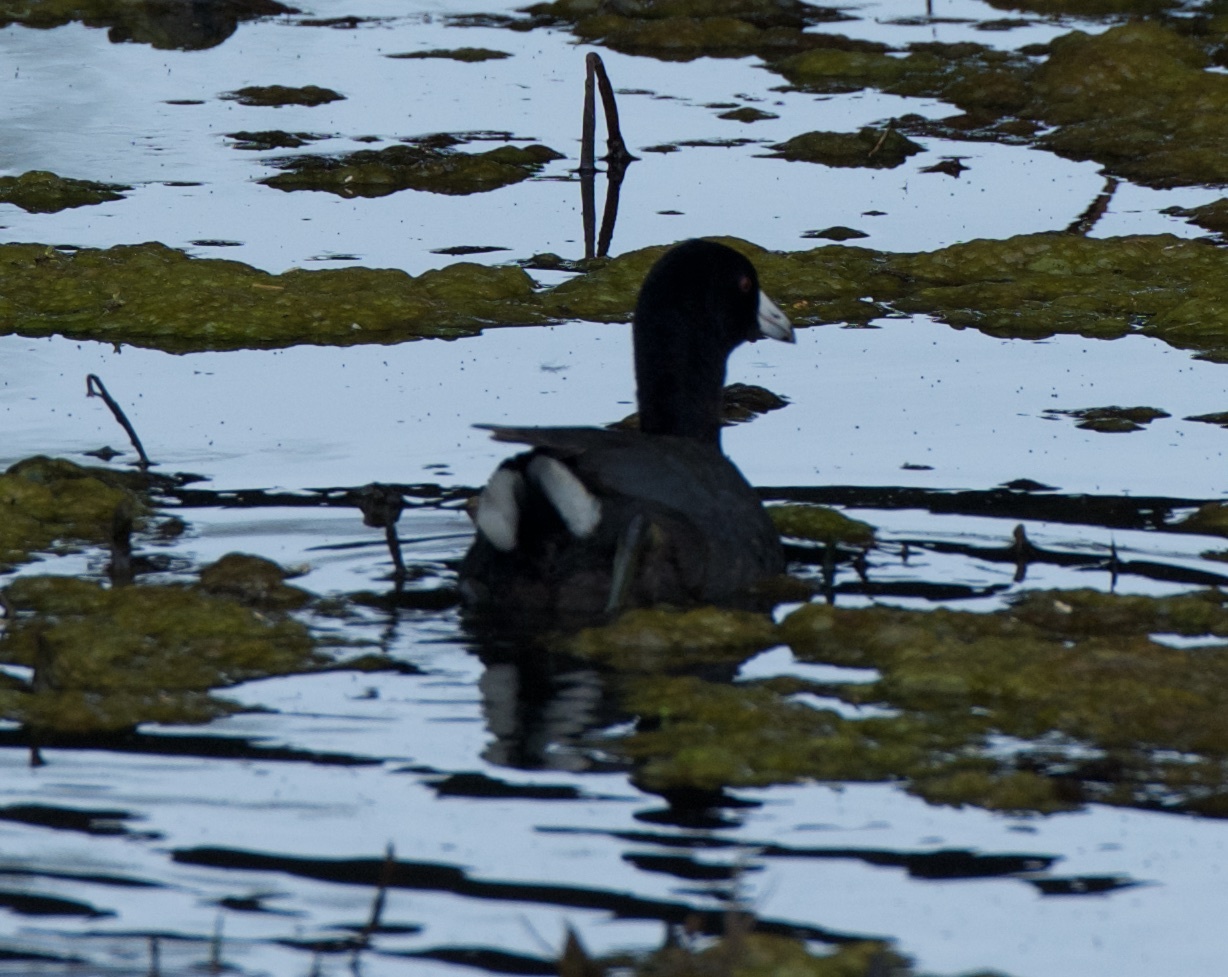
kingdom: Animalia
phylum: Chordata
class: Aves
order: Gruiformes
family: Rallidae
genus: Fulica
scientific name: Fulica americana
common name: American coot
